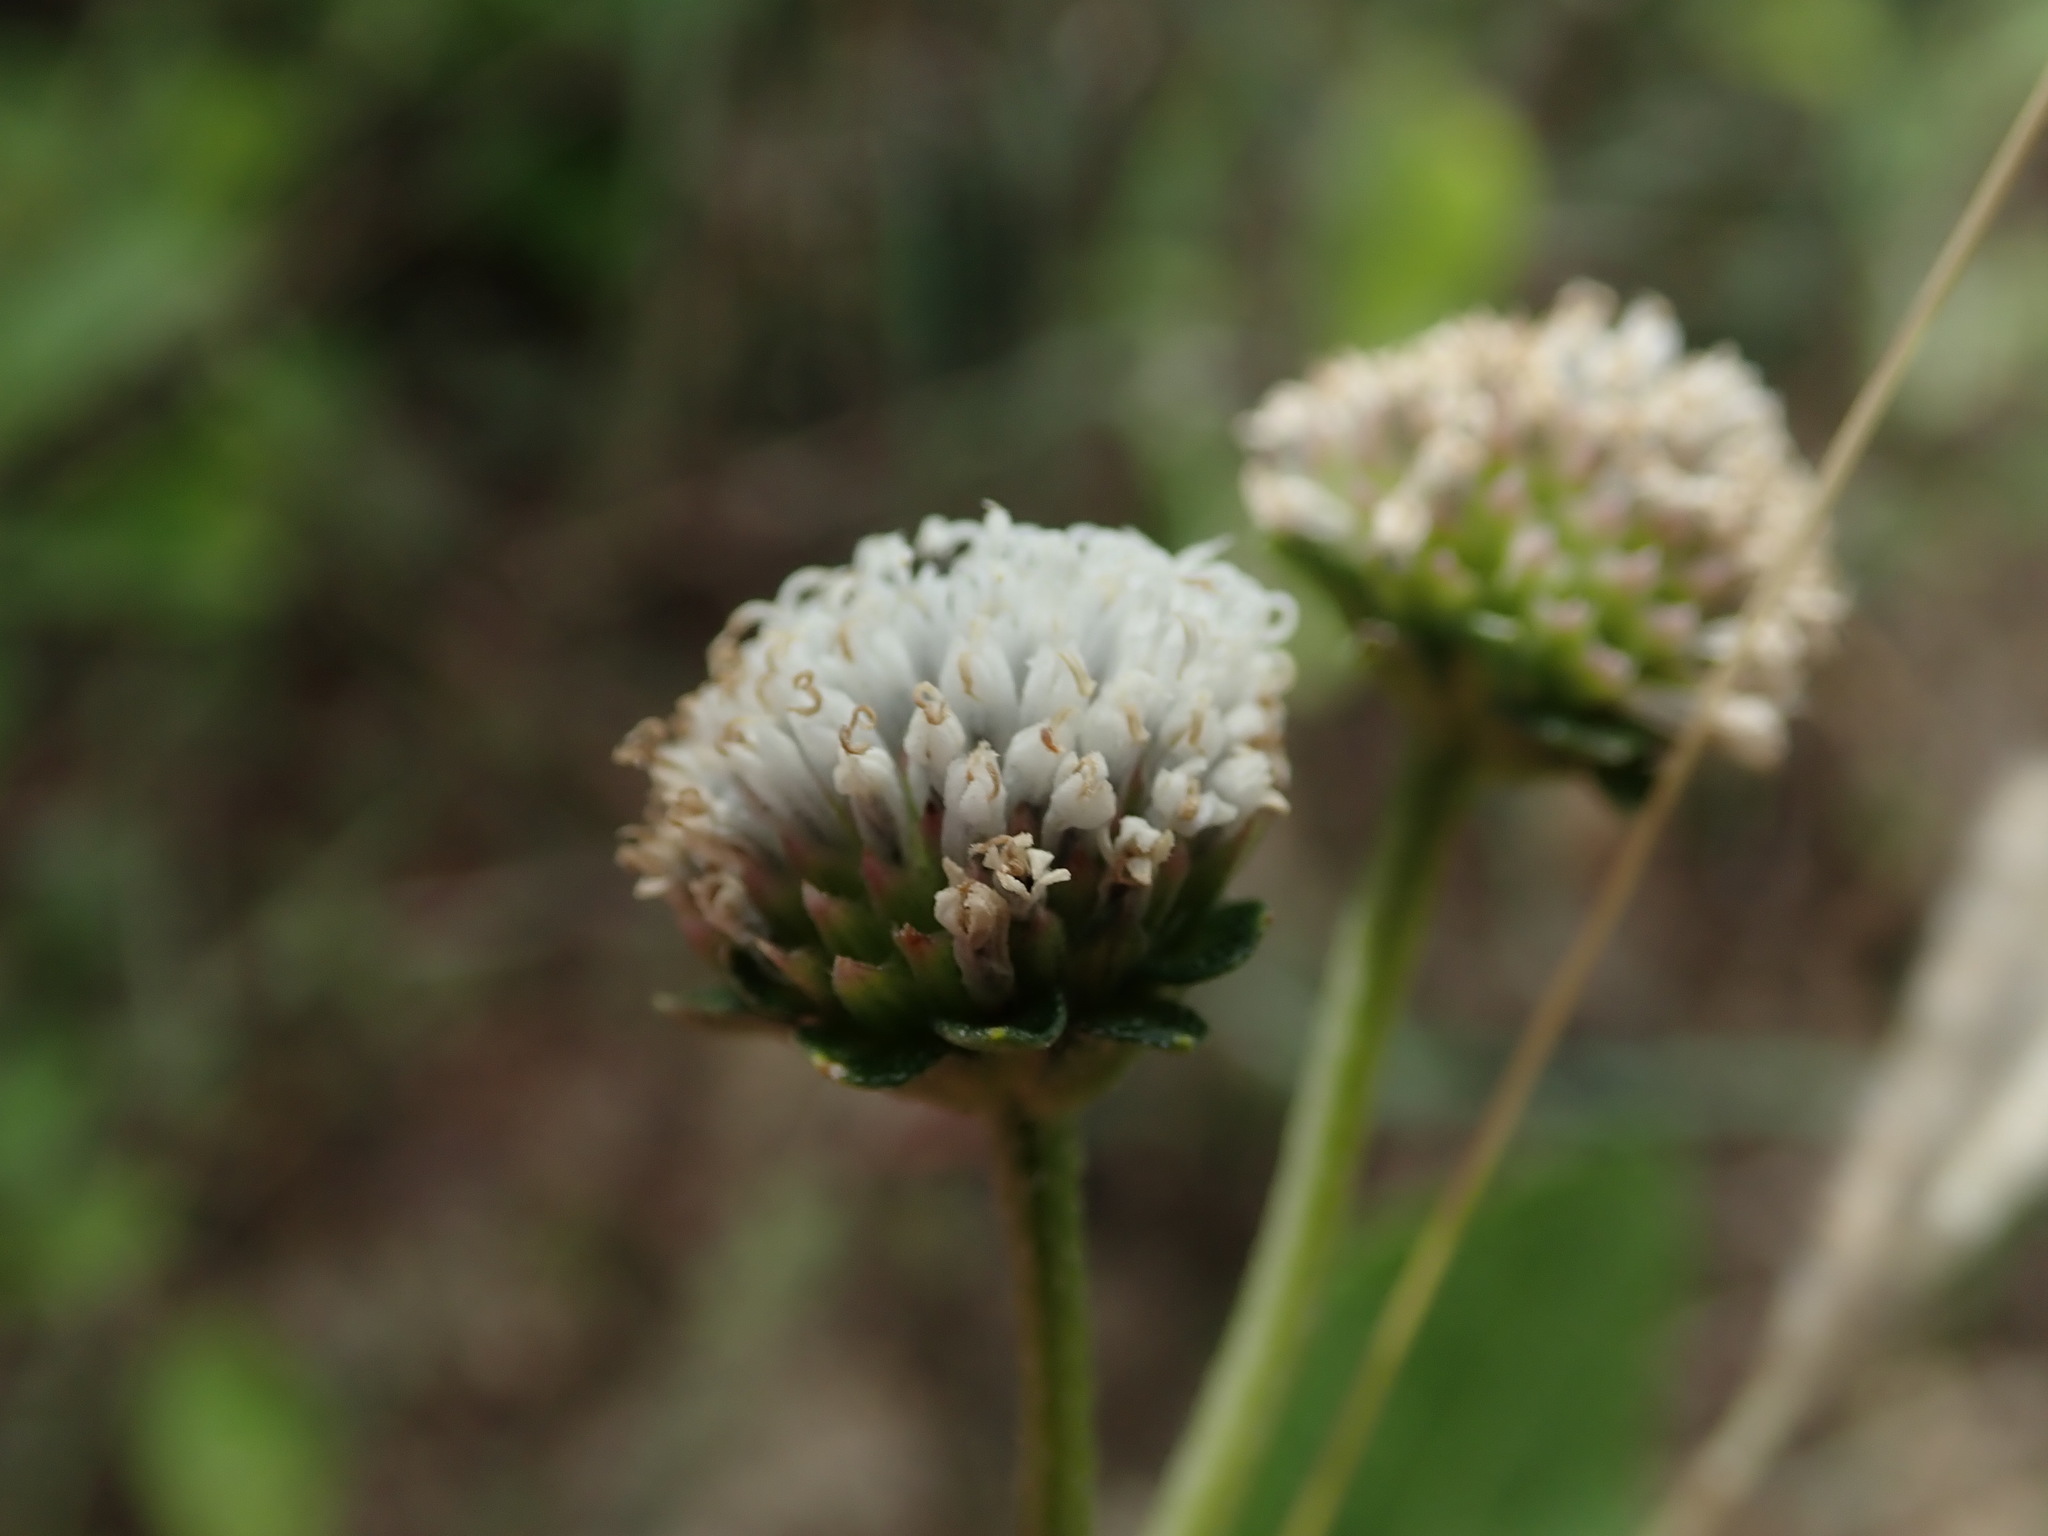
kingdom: Plantae
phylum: Tracheophyta
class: Magnoliopsida
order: Asterales
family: Asteraceae
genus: Melanthera
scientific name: Melanthera nivea
